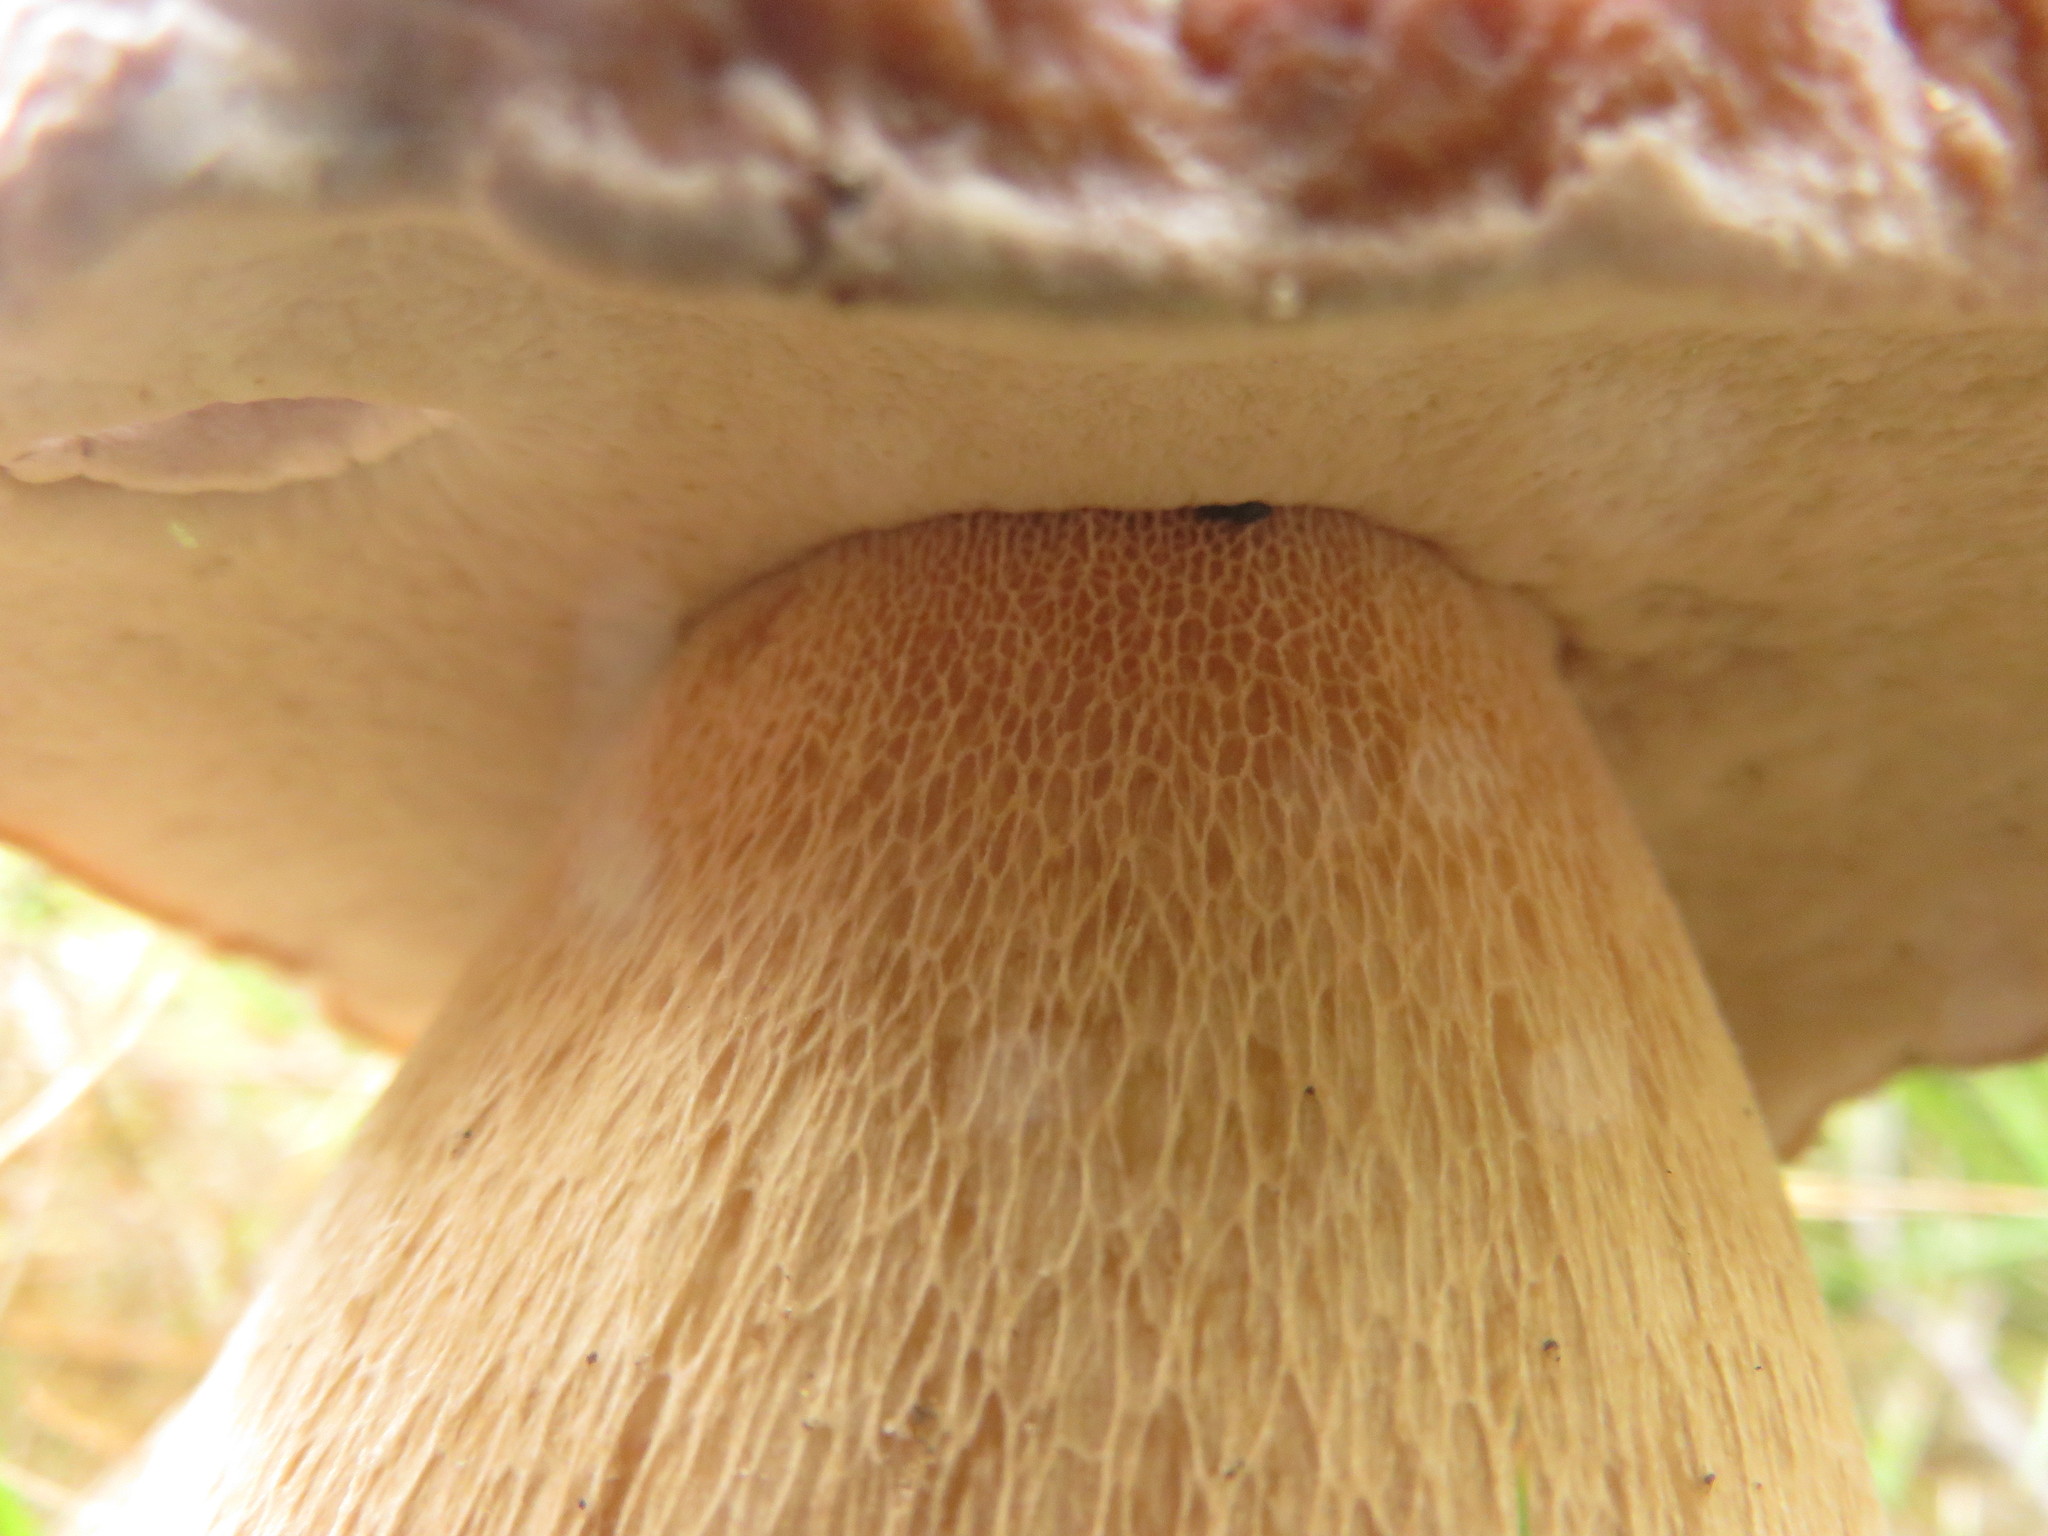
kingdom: Fungi
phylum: Basidiomycota
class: Agaricomycetes
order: Boletales
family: Boletaceae
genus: Boletus
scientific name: Boletus edulis
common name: Cep
